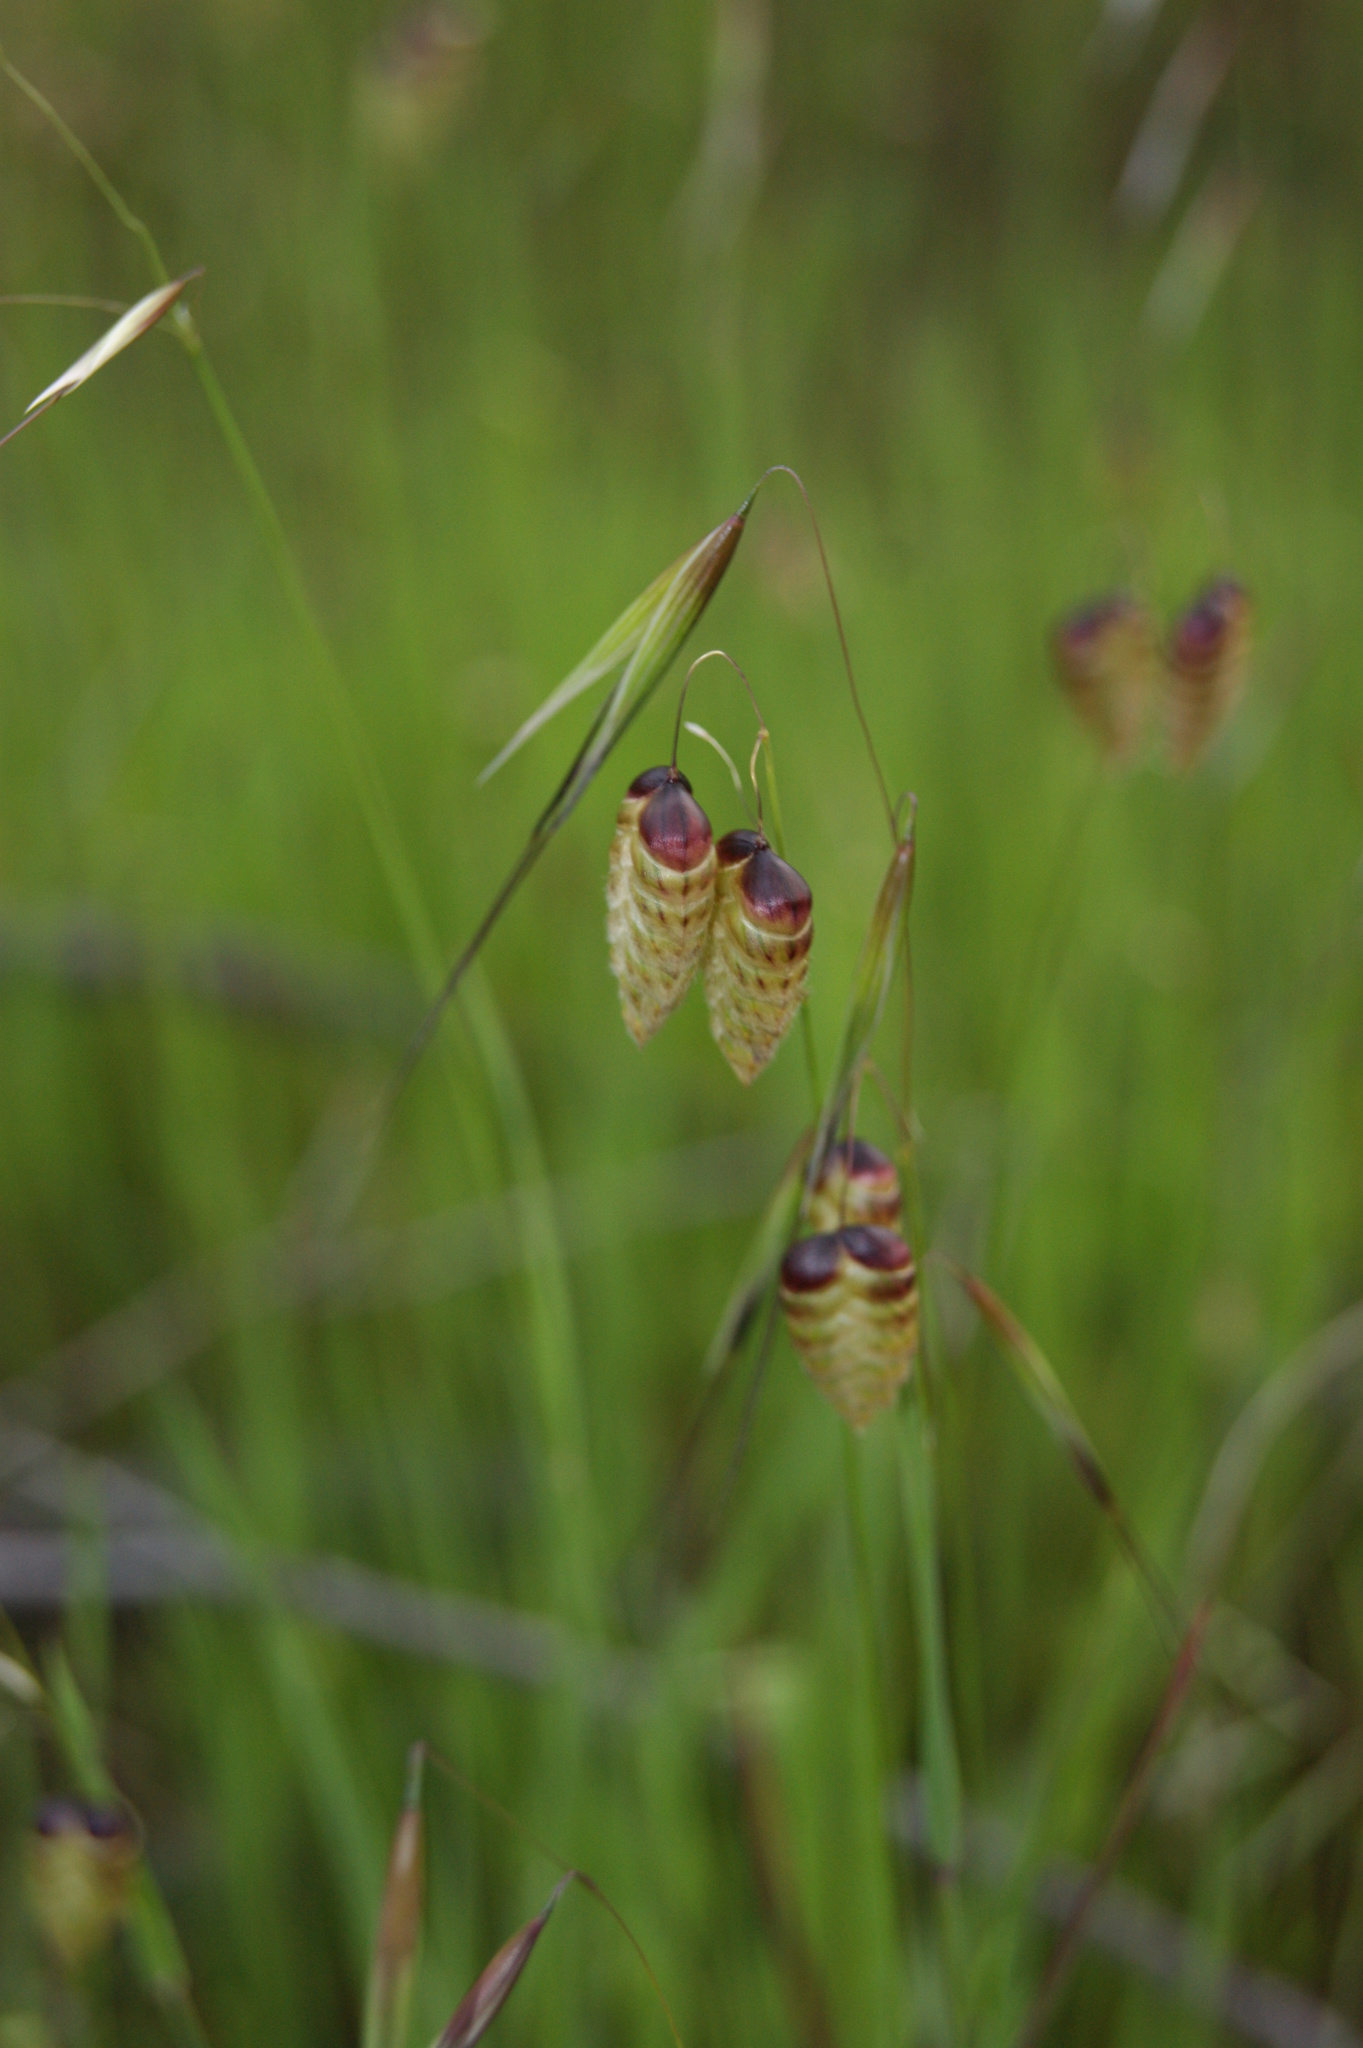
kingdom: Plantae
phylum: Tracheophyta
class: Liliopsida
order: Poales
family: Poaceae
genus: Briza
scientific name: Briza maxima
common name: Big quakinggrass
